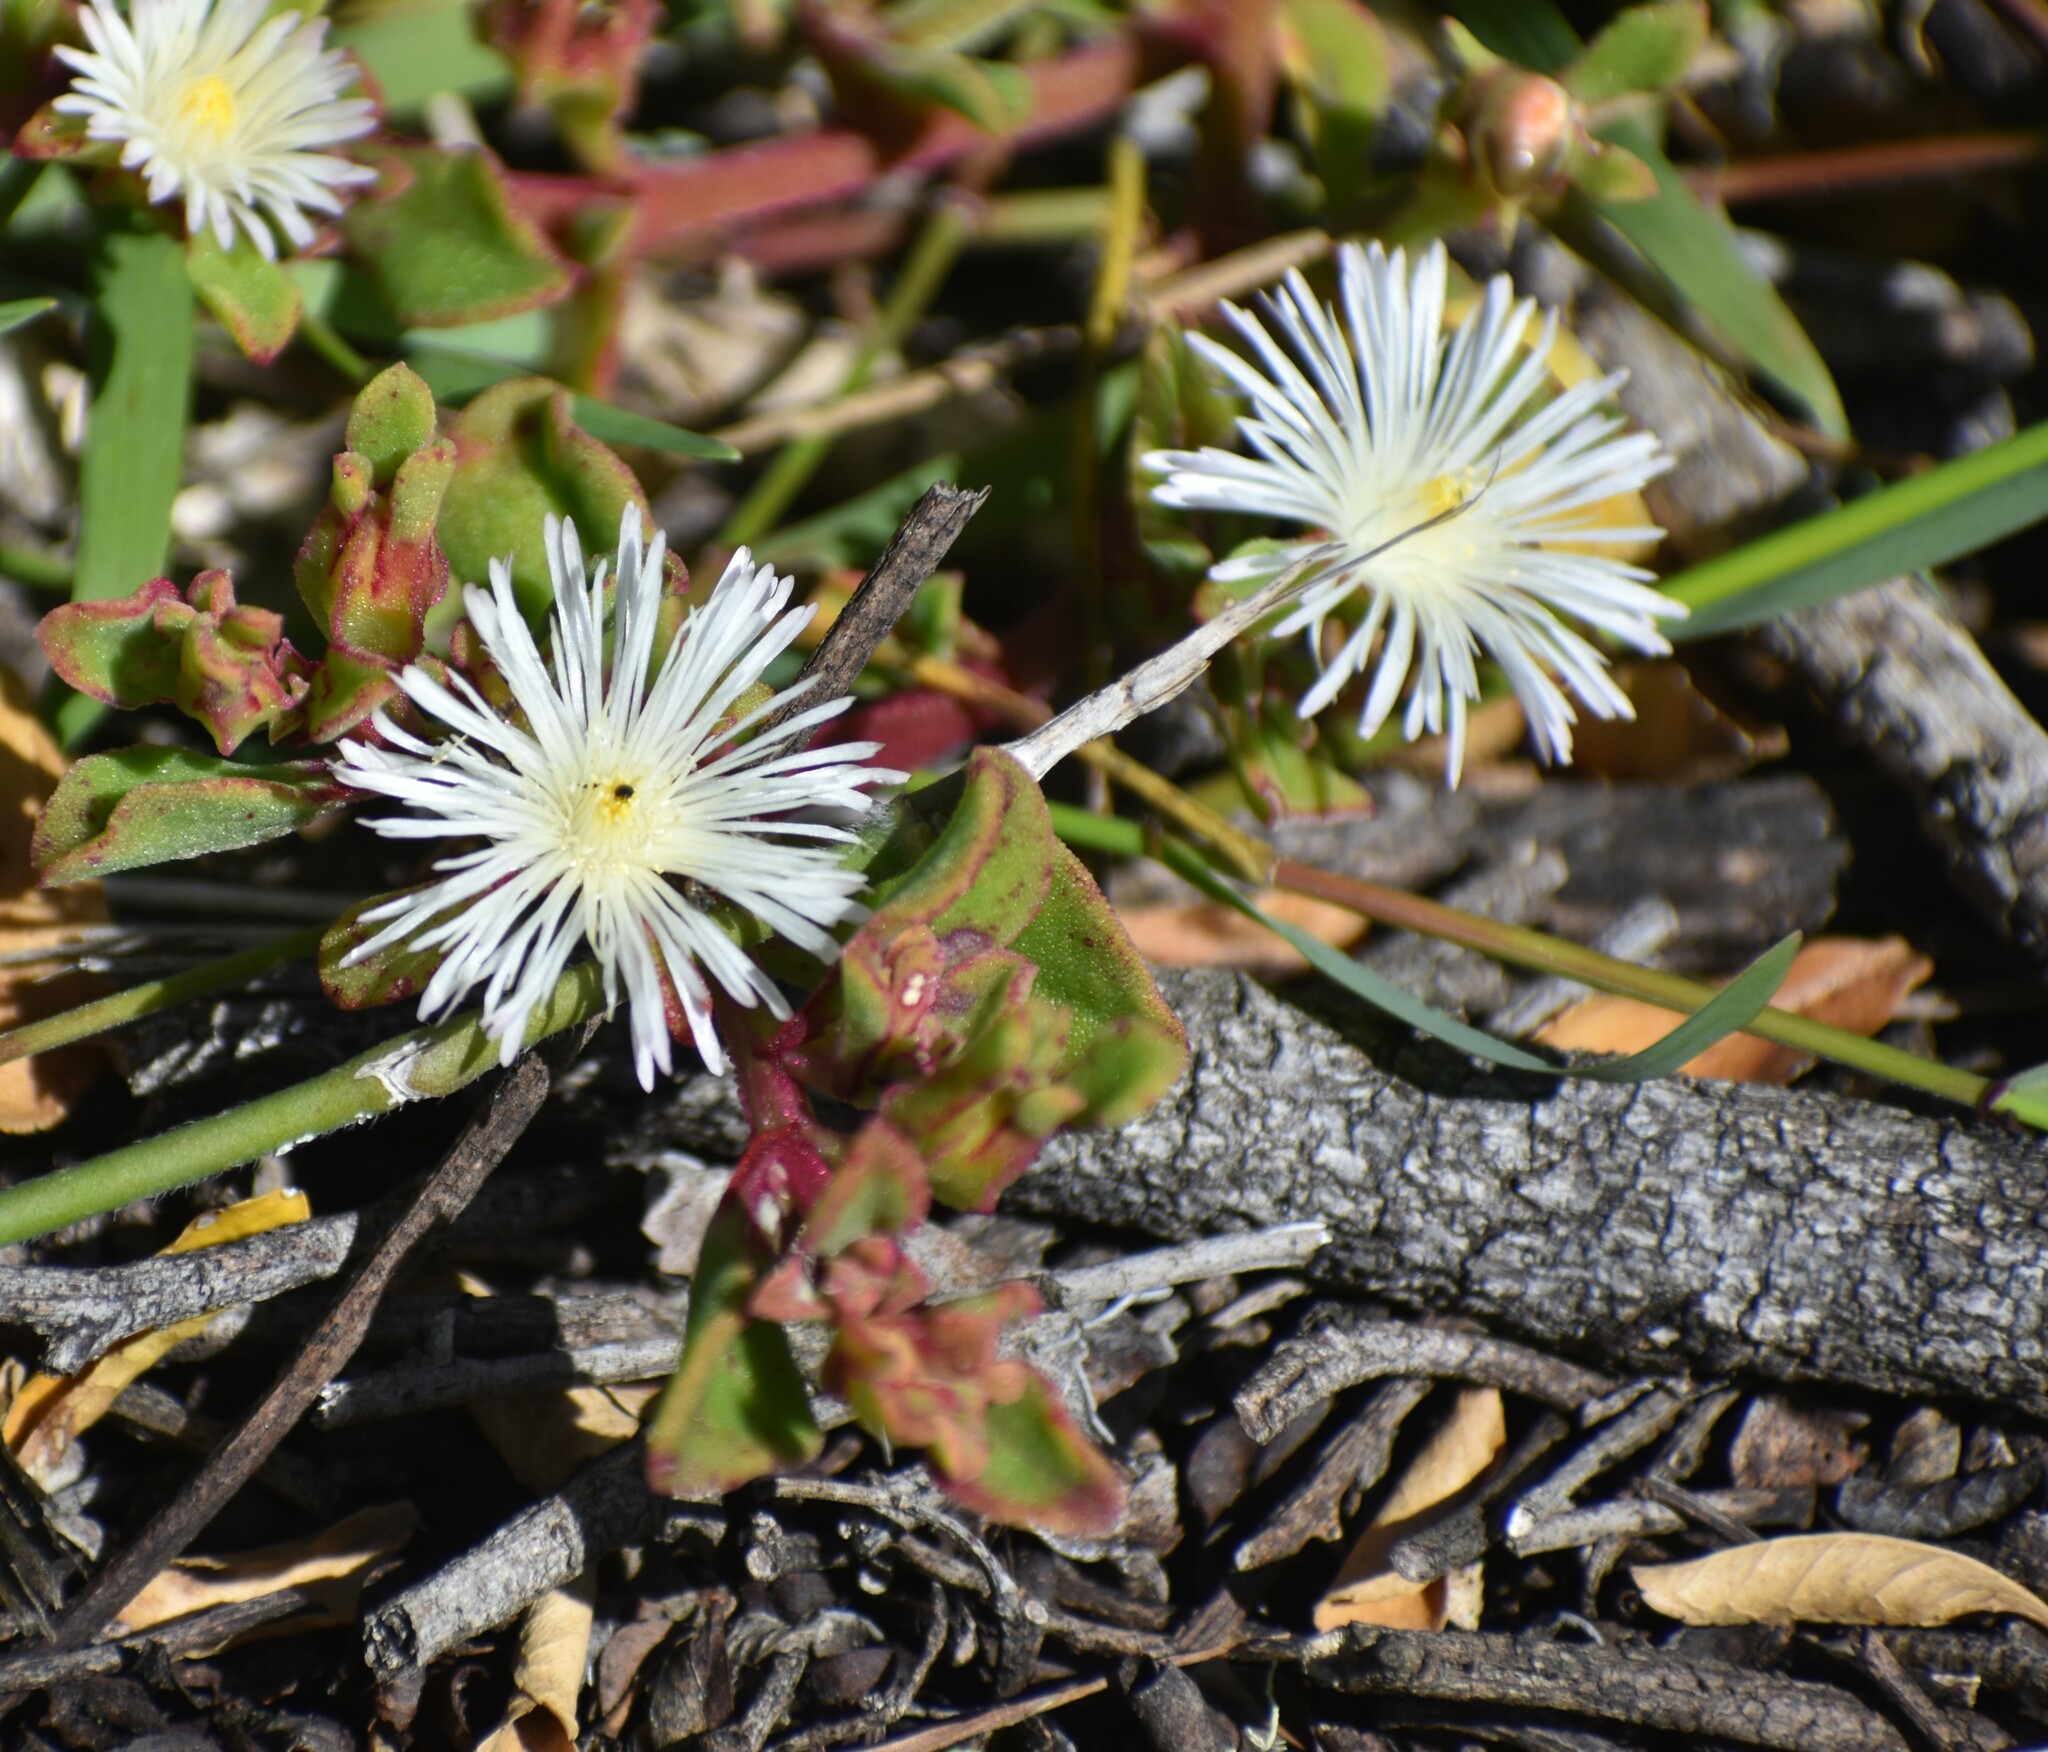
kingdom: Plantae
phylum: Tracheophyta
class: Magnoliopsida
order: Caryophyllales
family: Aizoaceae
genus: Mesembryanthemum
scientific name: Mesembryanthemum aitonis
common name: Angled iceplant
